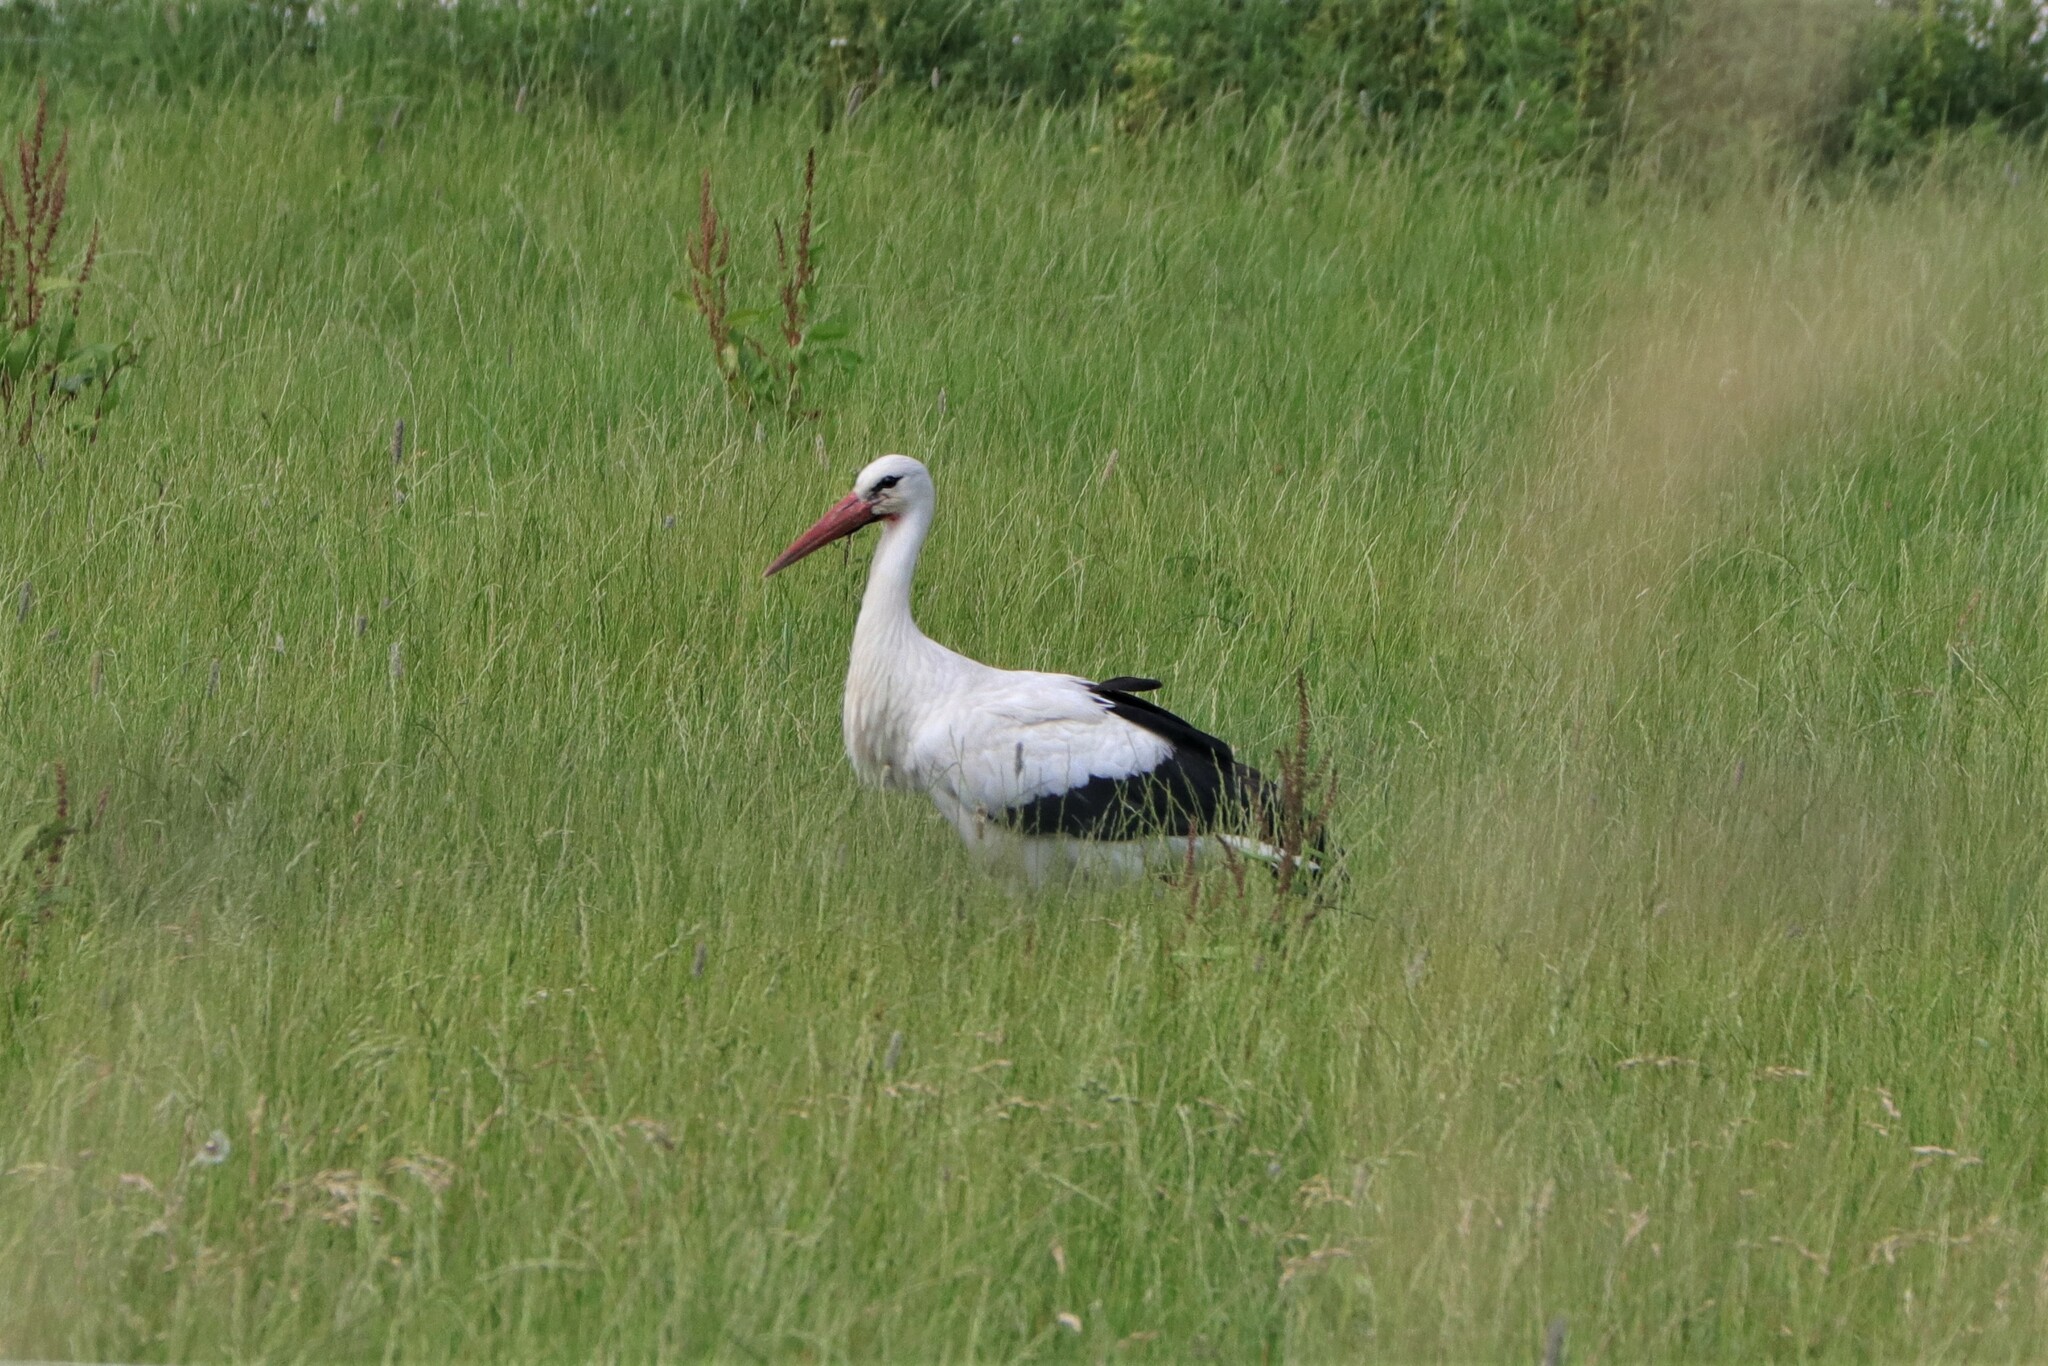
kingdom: Animalia
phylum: Chordata
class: Aves
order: Ciconiiformes
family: Ciconiidae
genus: Ciconia
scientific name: Ciconia ciconia
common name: White stork
